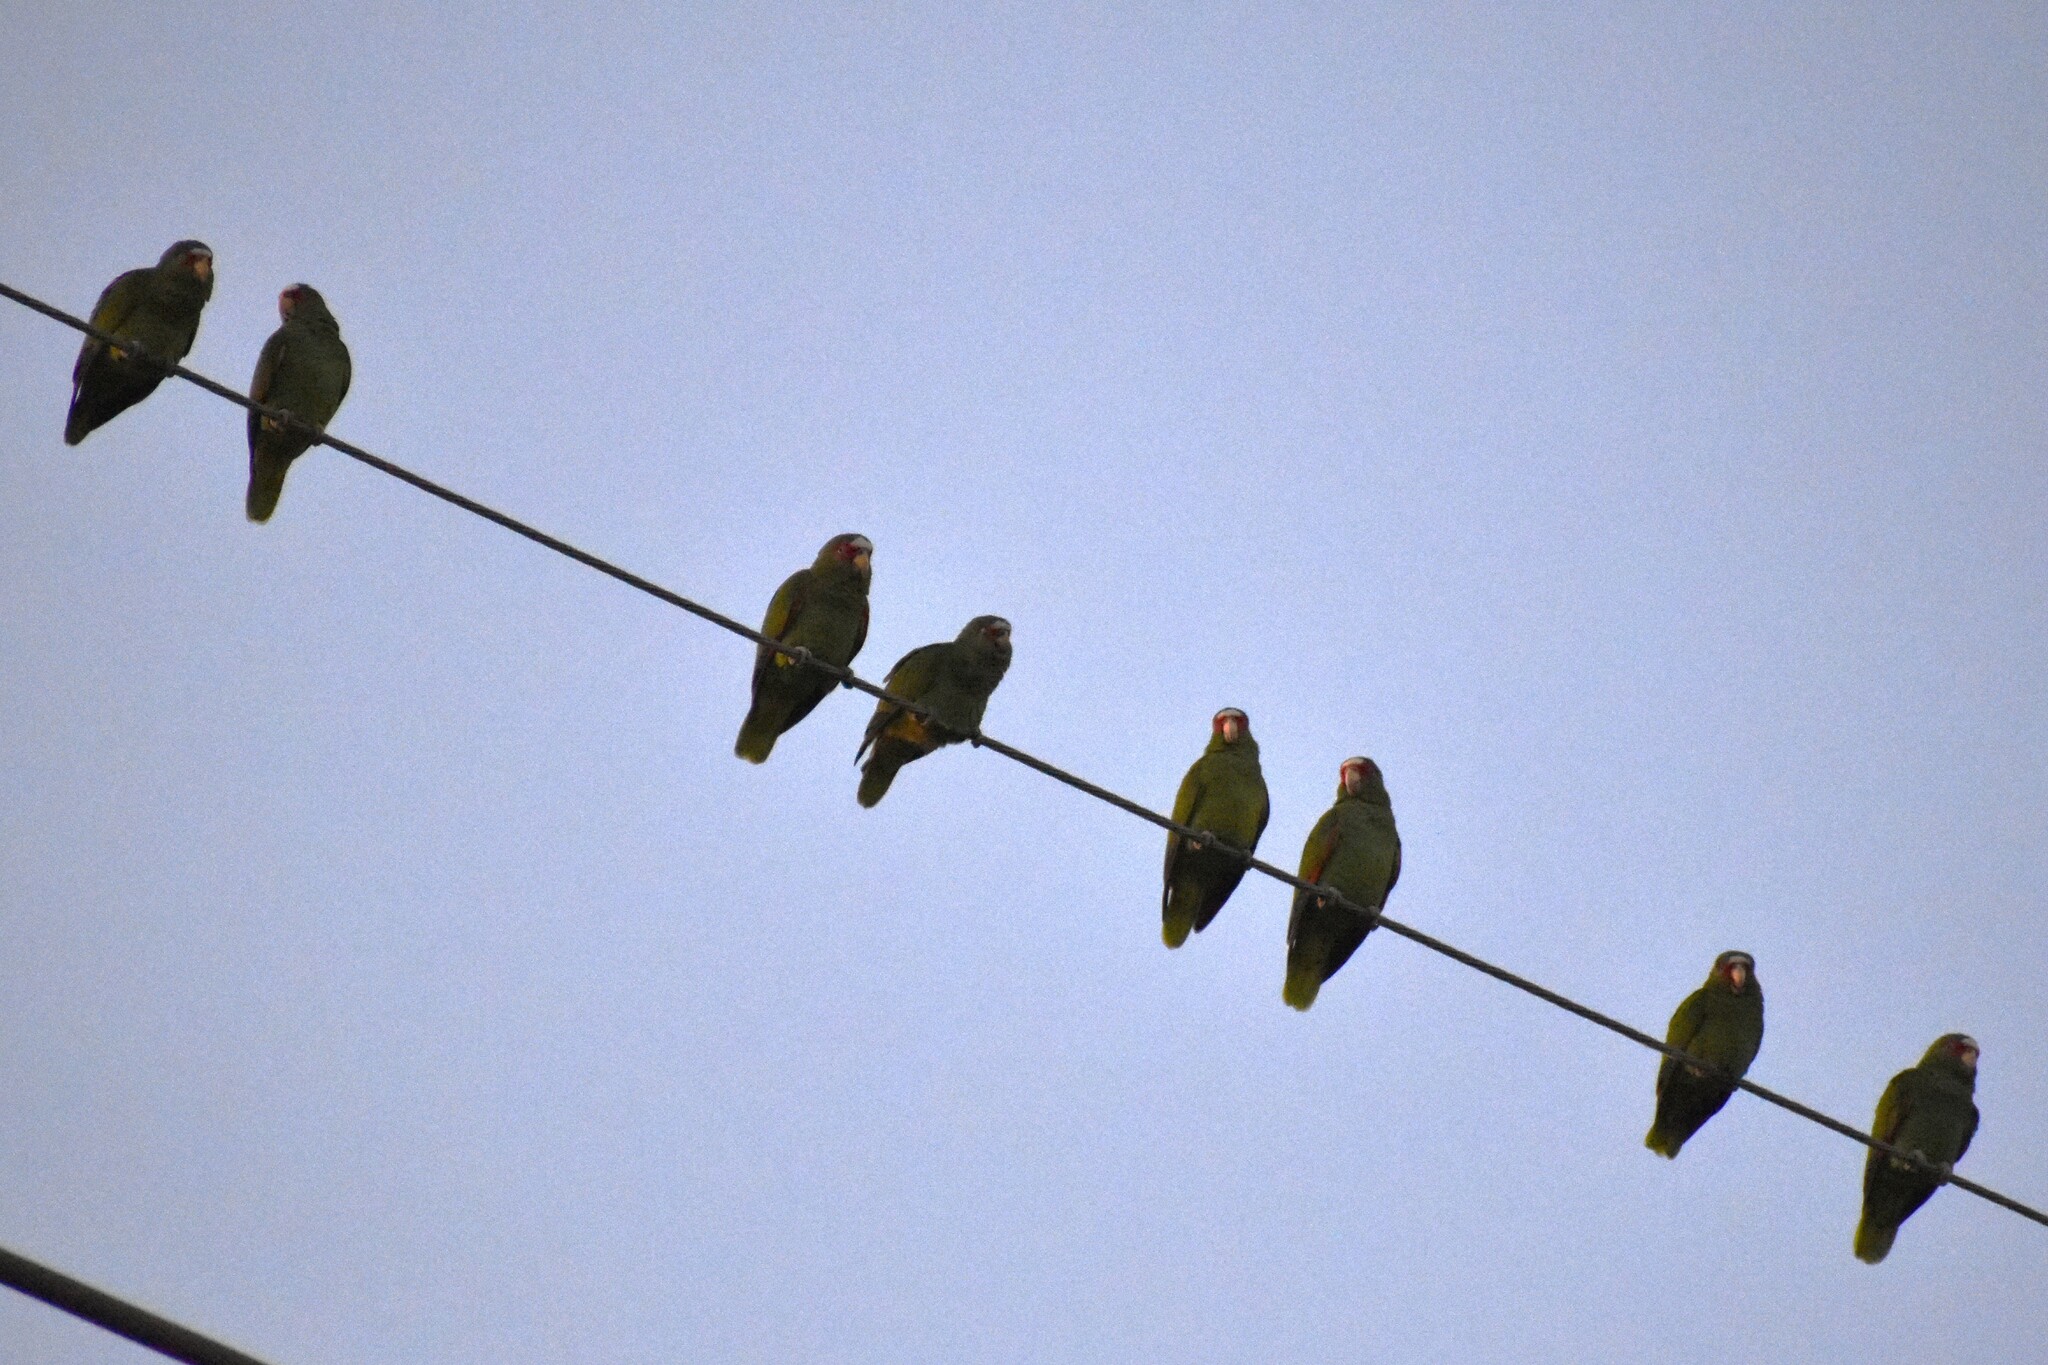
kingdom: Animalia
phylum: Chordata
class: Aves
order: Psittaciformes
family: Psittacidae
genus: Amazona
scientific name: Amazona albifrons
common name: White-fronted amazon
